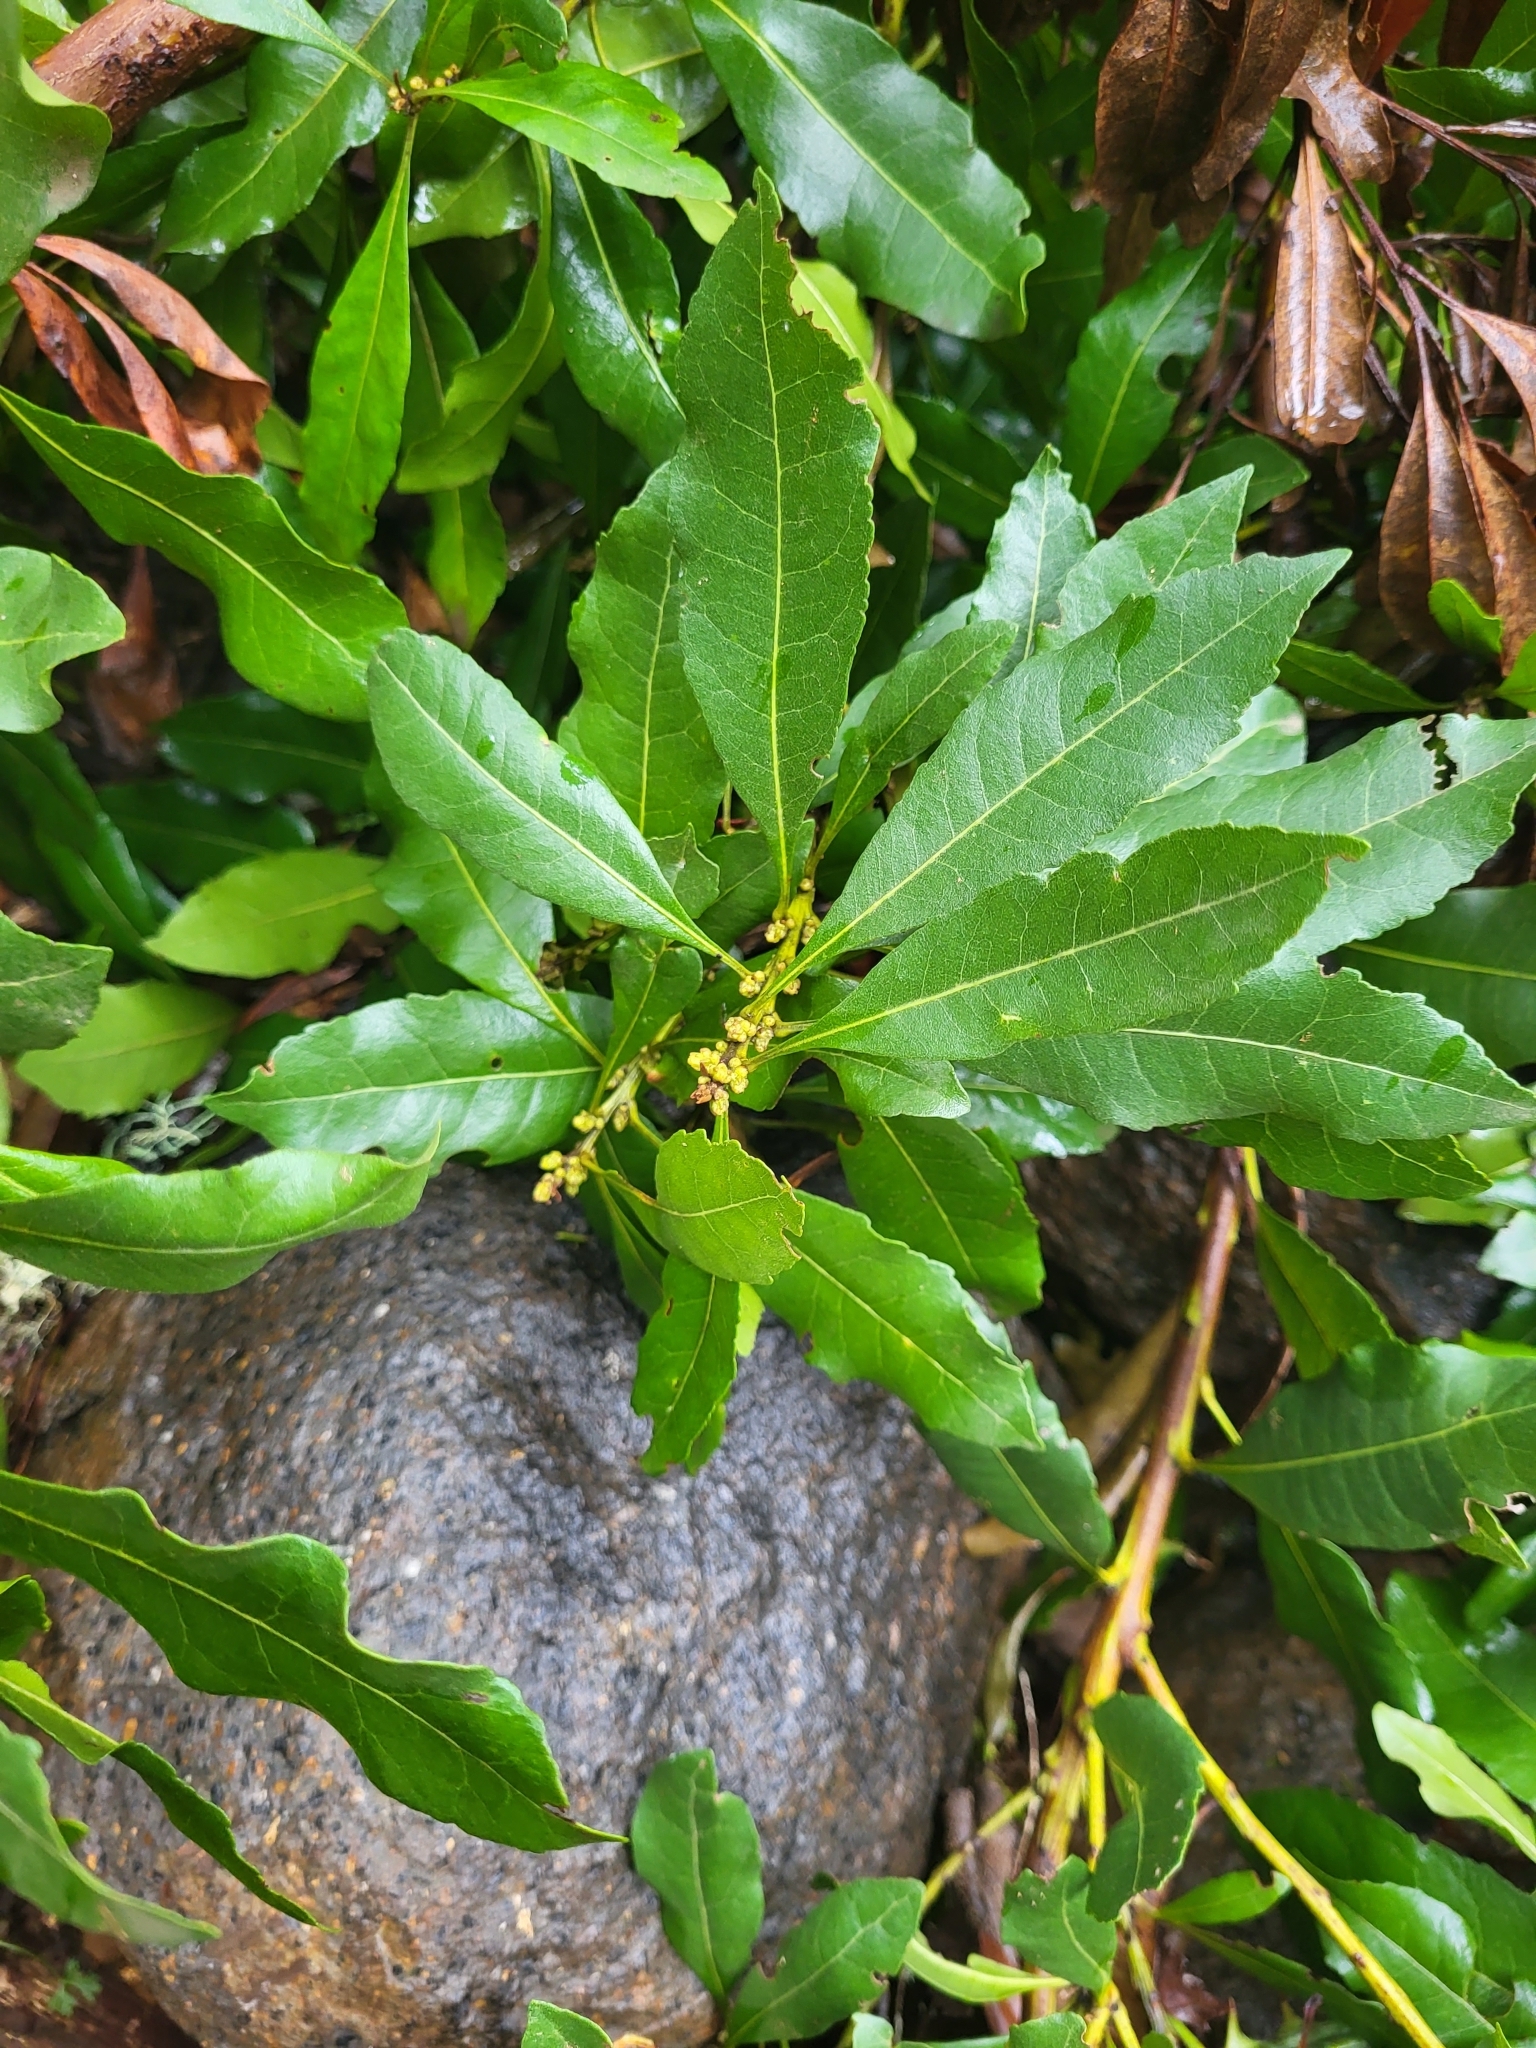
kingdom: Plantae
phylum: Tracheophyta
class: Magnoliopsida
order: Fagales
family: Myricaceae
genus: Morella
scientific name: Morella faya
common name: Firetree
